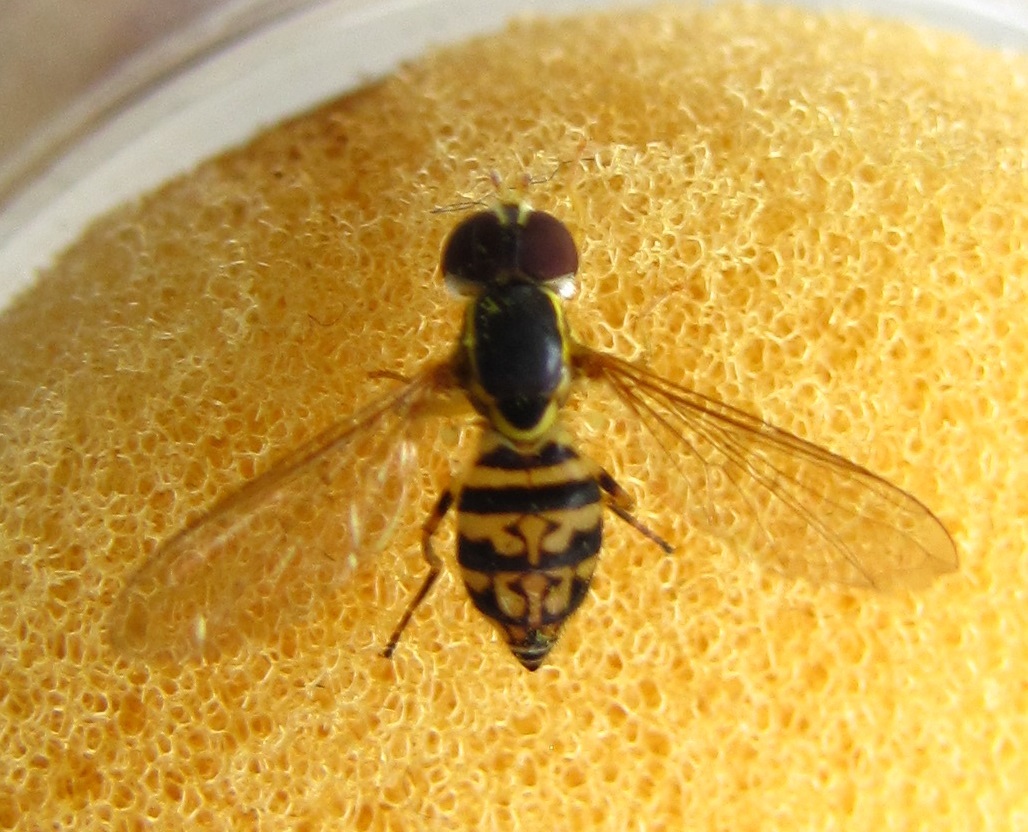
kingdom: Animalia
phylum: Arthropoda
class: Insecta
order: Diptera
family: Syrphidae
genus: Toxomerus
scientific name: Toxomerus geminatus
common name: Eastern calligrapher
